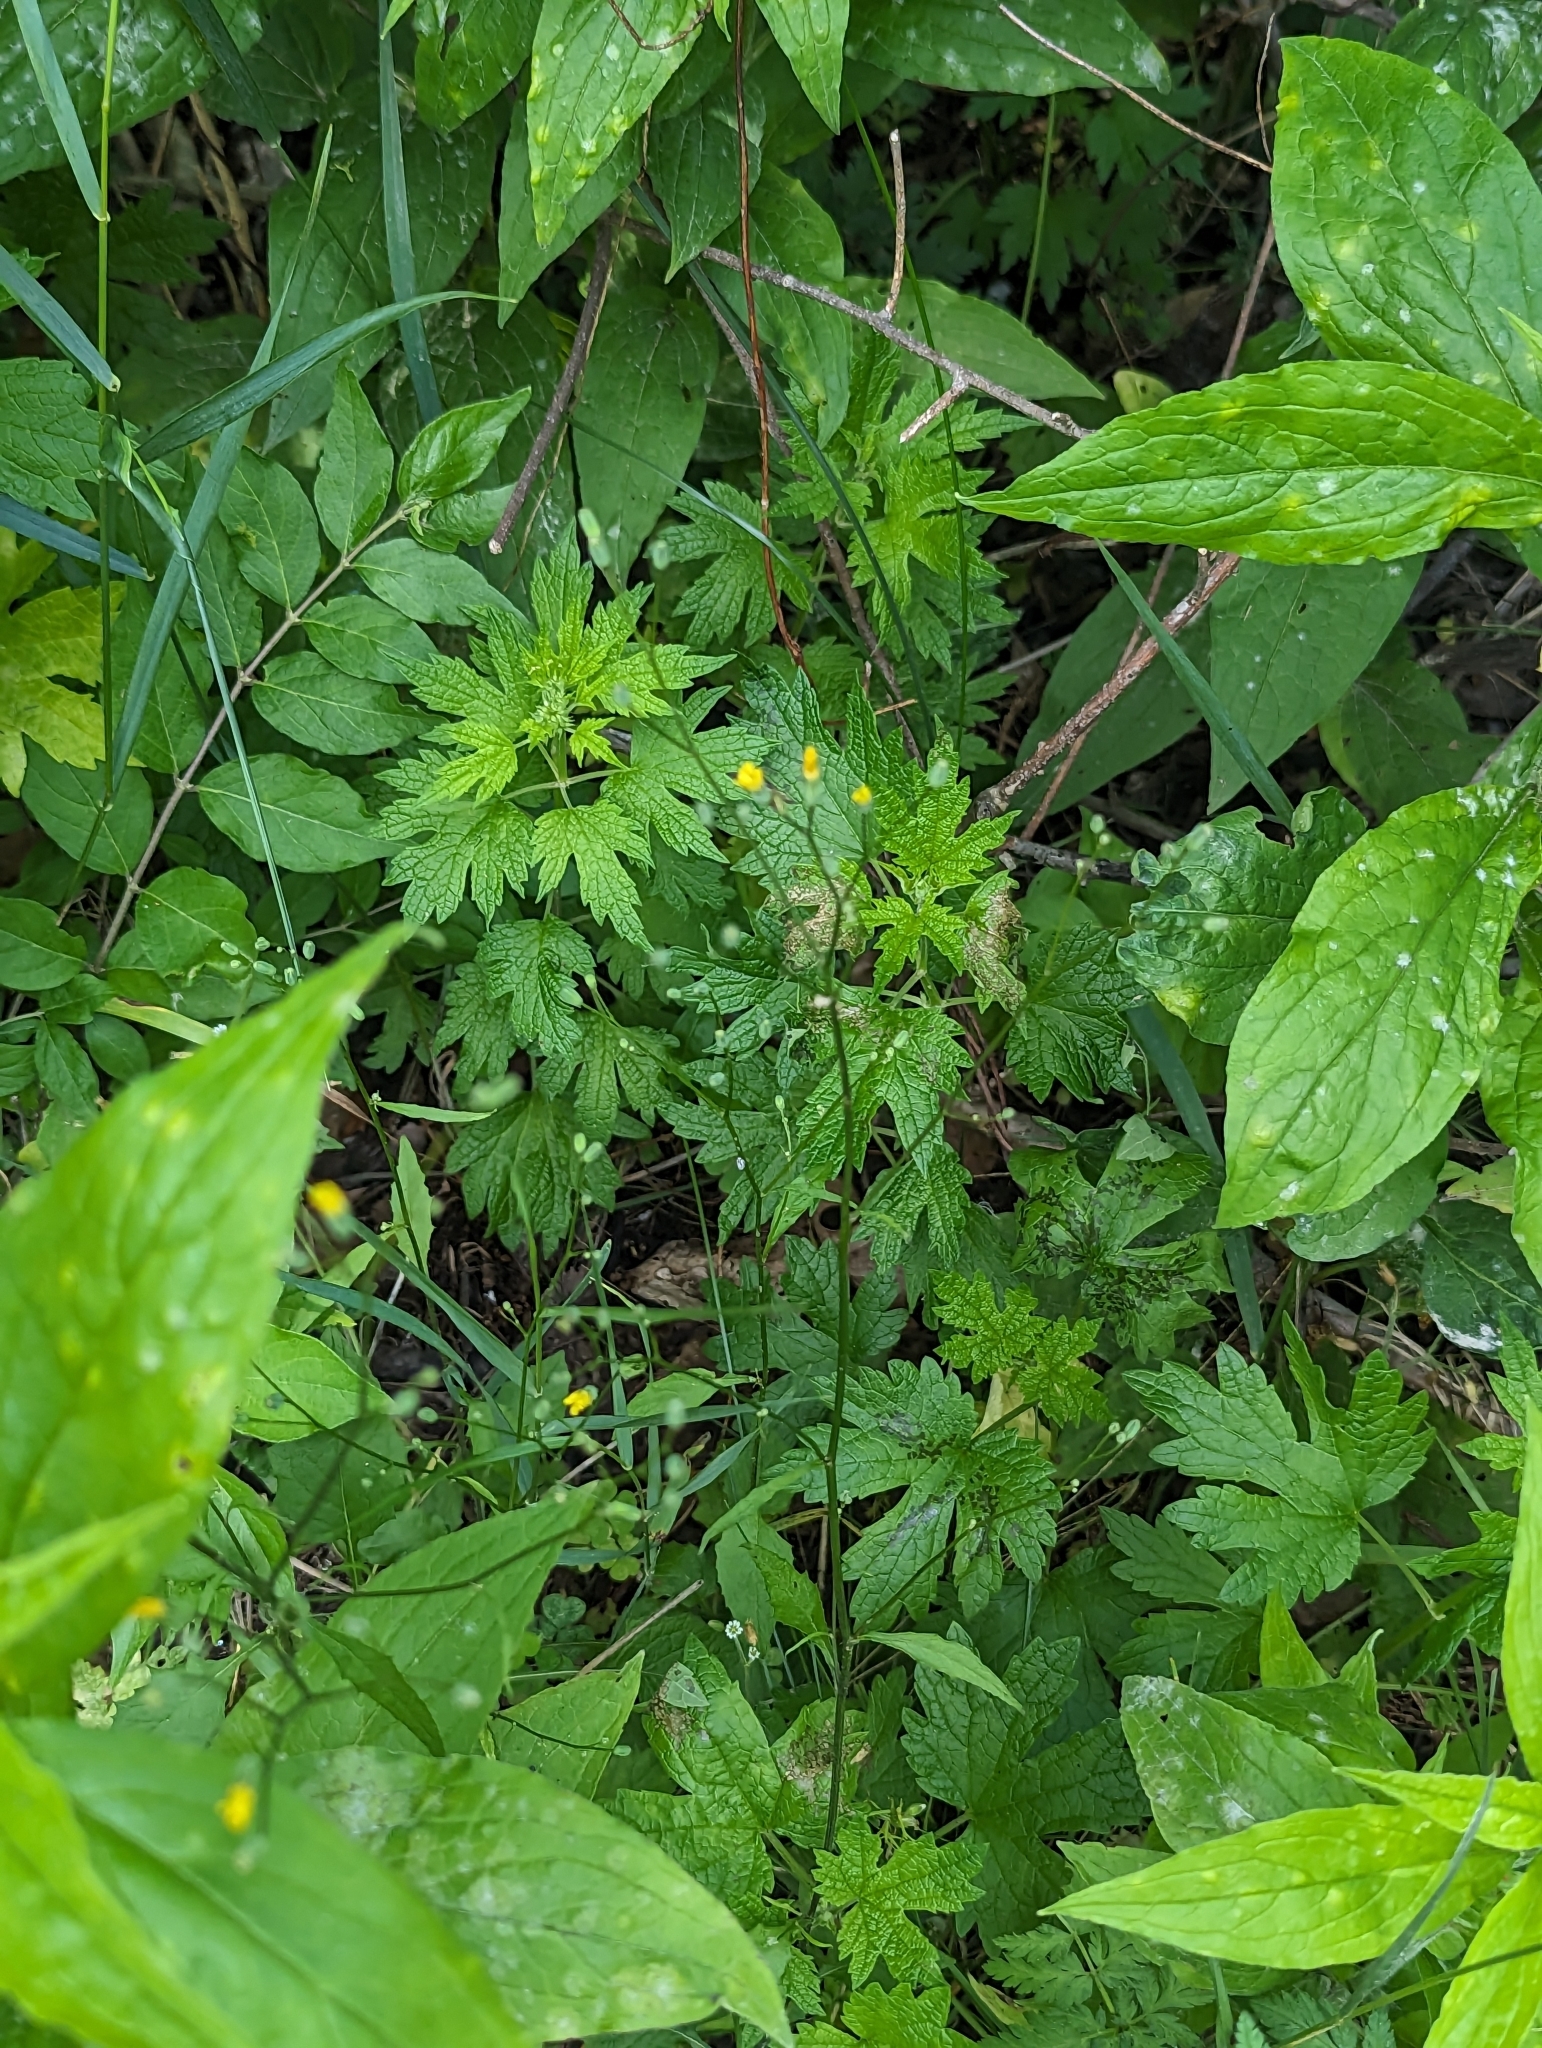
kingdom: Plantae
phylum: Tracheophyta
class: Magnoliopsida
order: Asterales
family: Asteraceae
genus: Lapsana
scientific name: Lapsana communis
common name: Nipplewort
